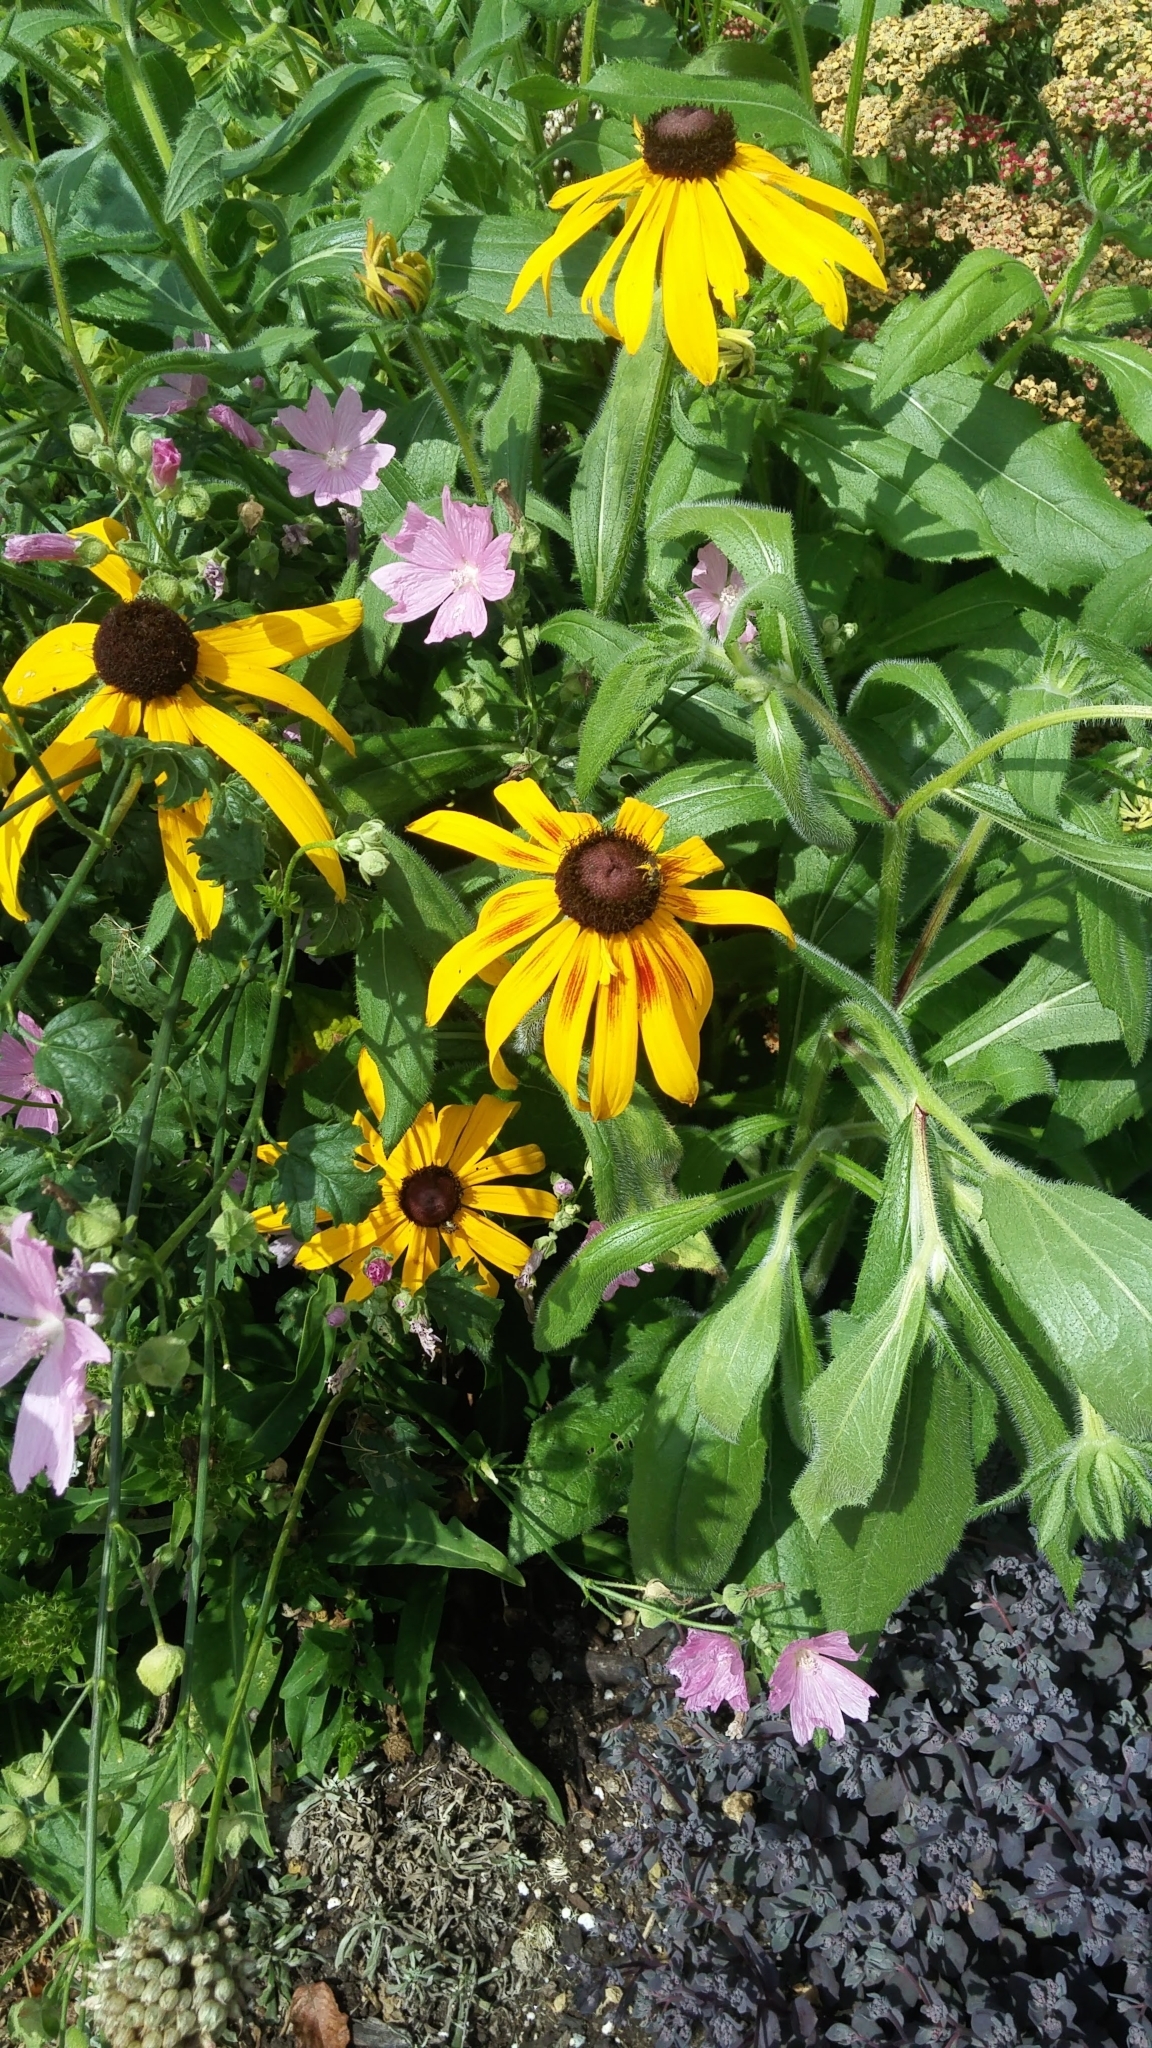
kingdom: Plantae
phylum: Tracheophyta
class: Magnoliopsida
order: Asterales
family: Asteraceae
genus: Rudbeckia
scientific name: Rudbeckia hirta
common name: Black-eyed-susan
